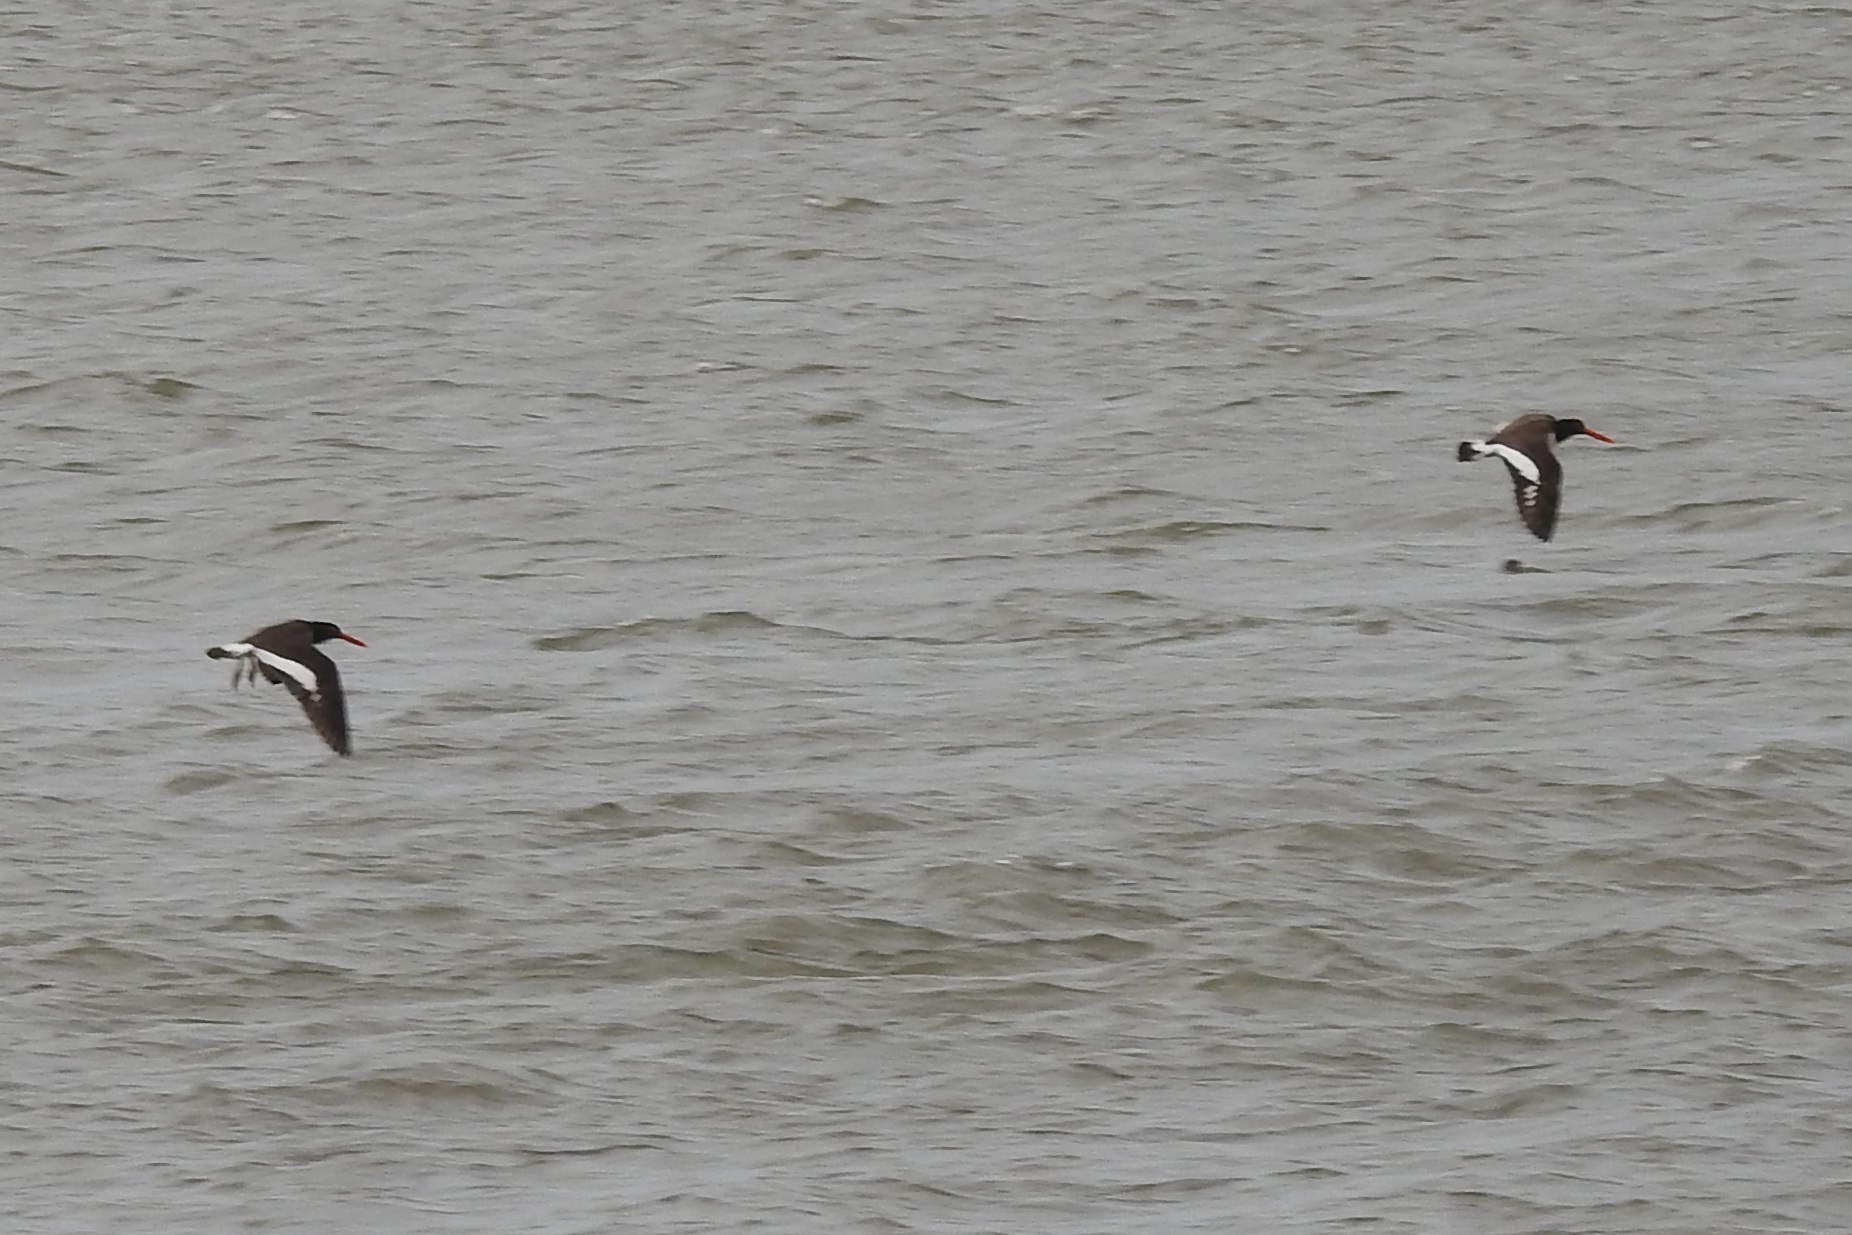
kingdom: Animalia
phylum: Chordata
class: Aves
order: Charadriiformes
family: Haematopodidae
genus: Haematopus
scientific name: Haematopus palliatus
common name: American oystercatcher
